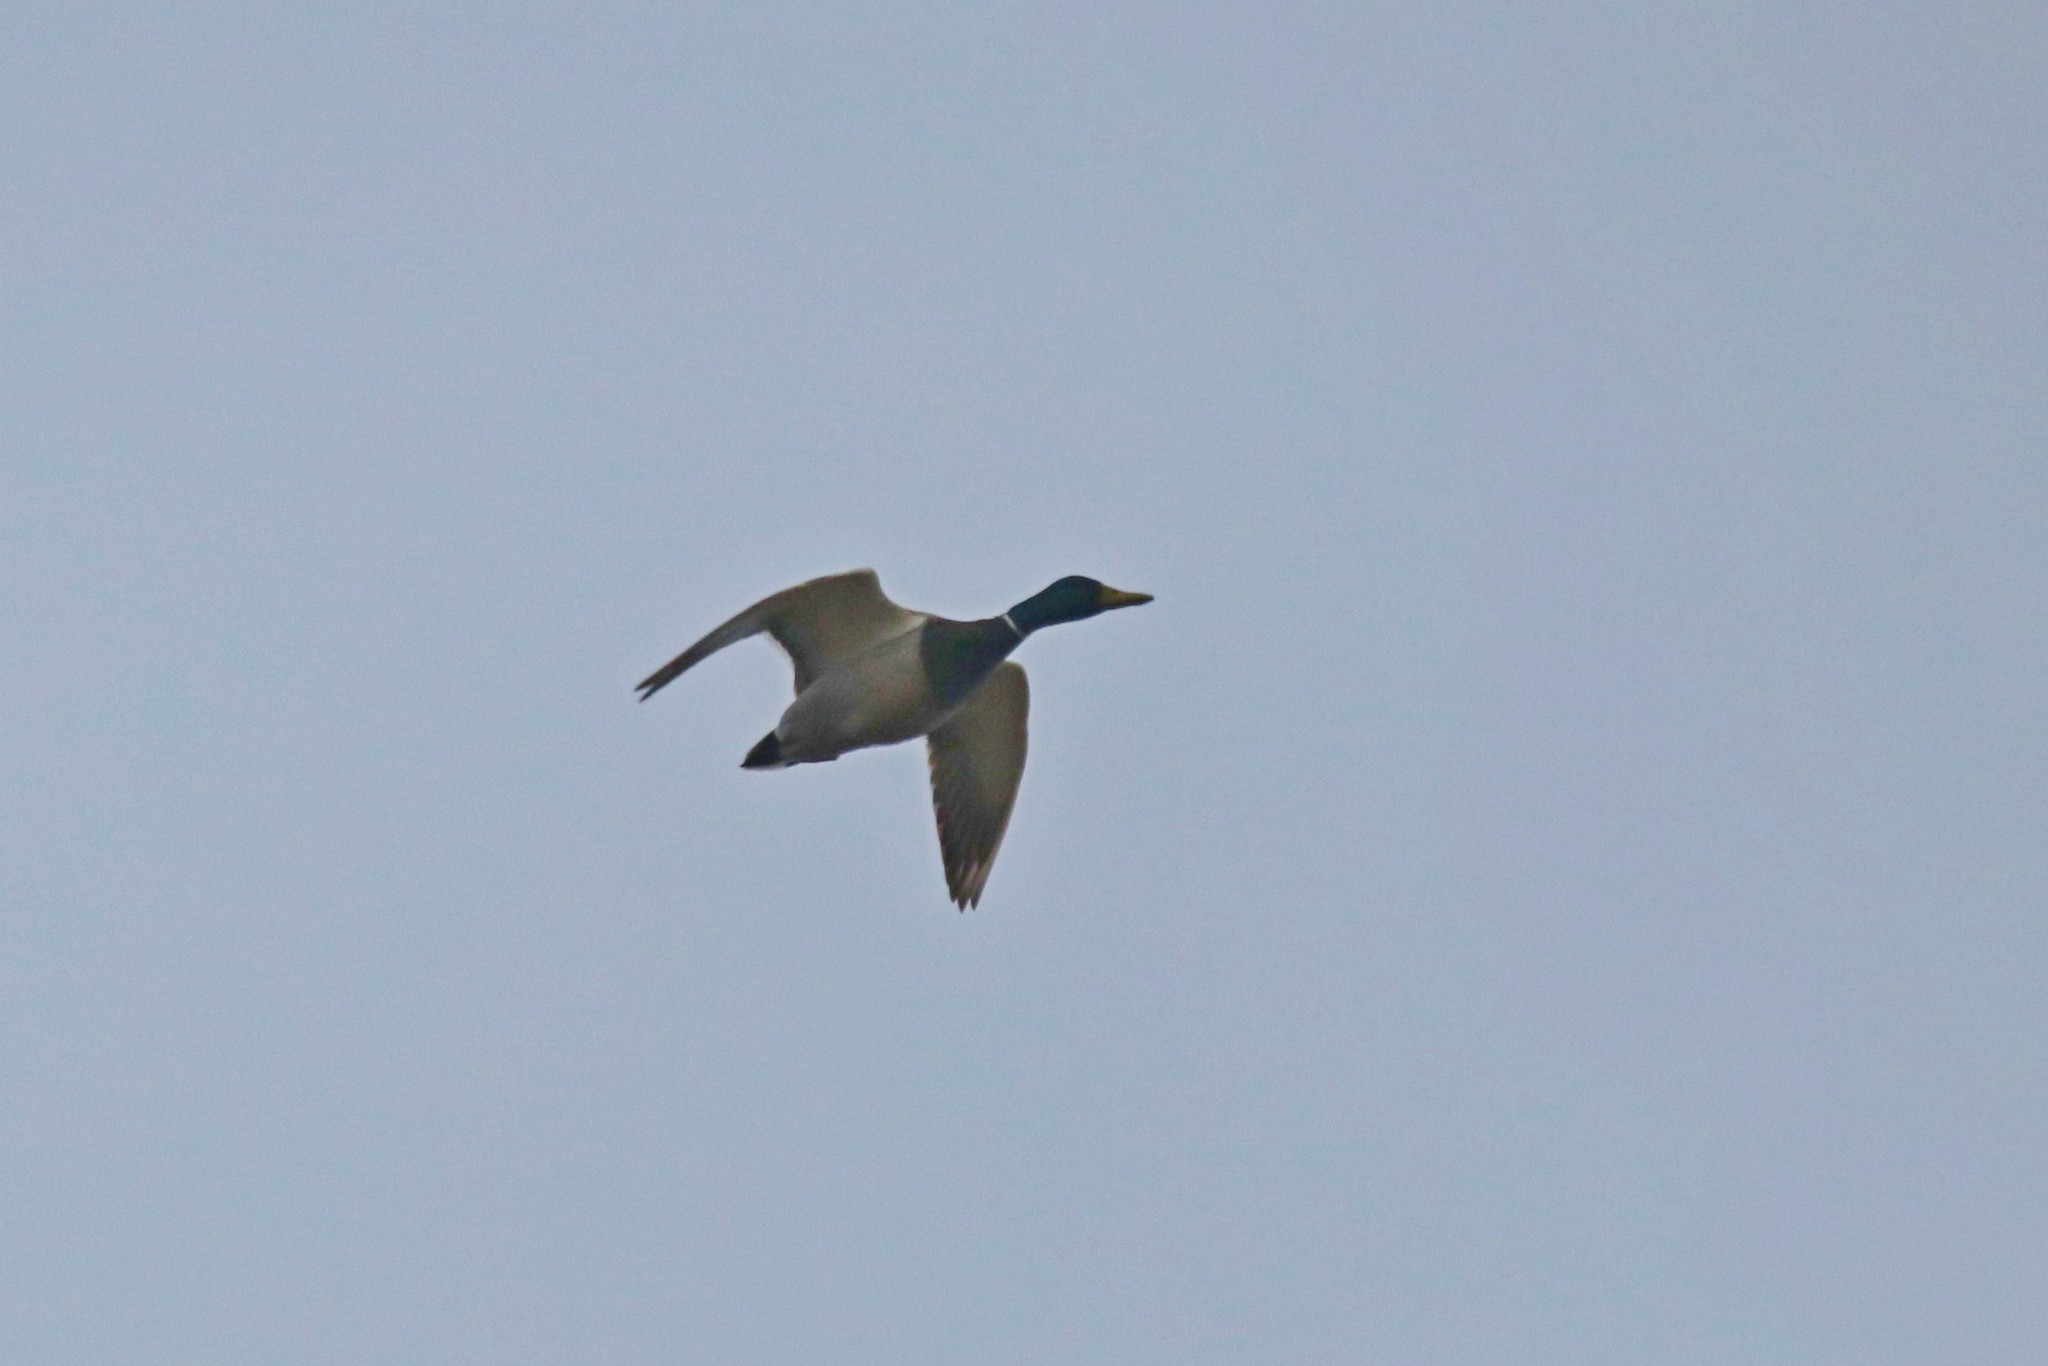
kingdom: Animalia
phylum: Chordata
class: Aves
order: Anseriformes
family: Anatidae
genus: Anas
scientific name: Anas platyrhynchos
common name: Mallard
